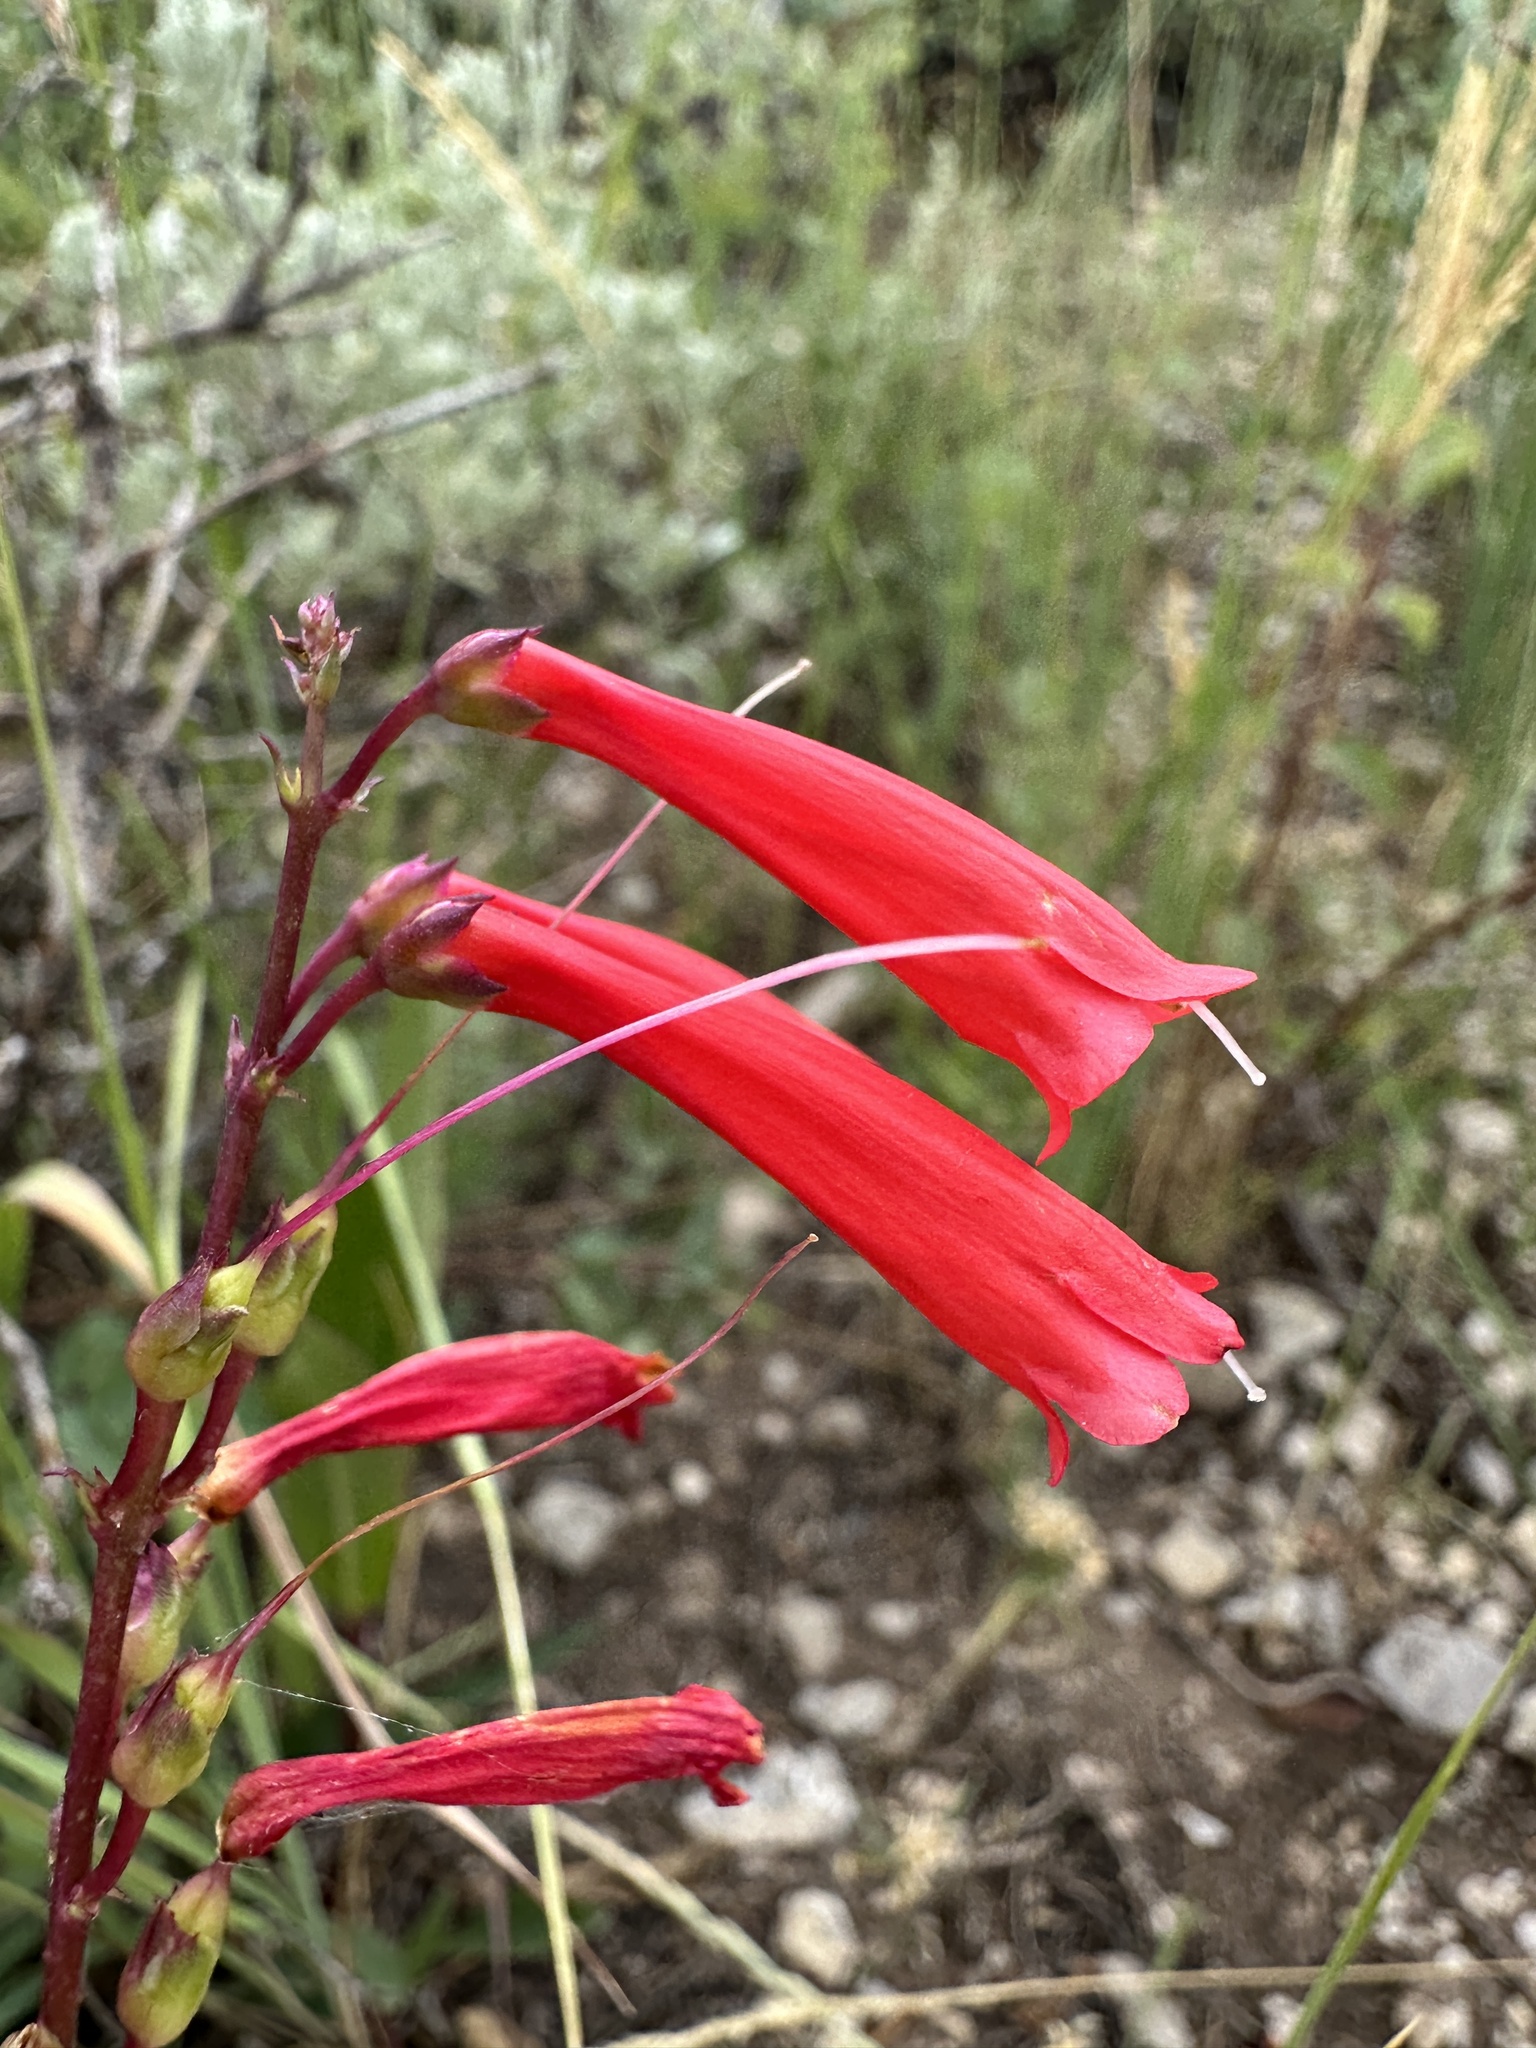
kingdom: Plantae
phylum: Tracheophyta
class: Magnoliopsida
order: Lamiales
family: Plantaginaceae
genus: Penstemon
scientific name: Penstemon eatonii
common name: Eaton's penstemon
